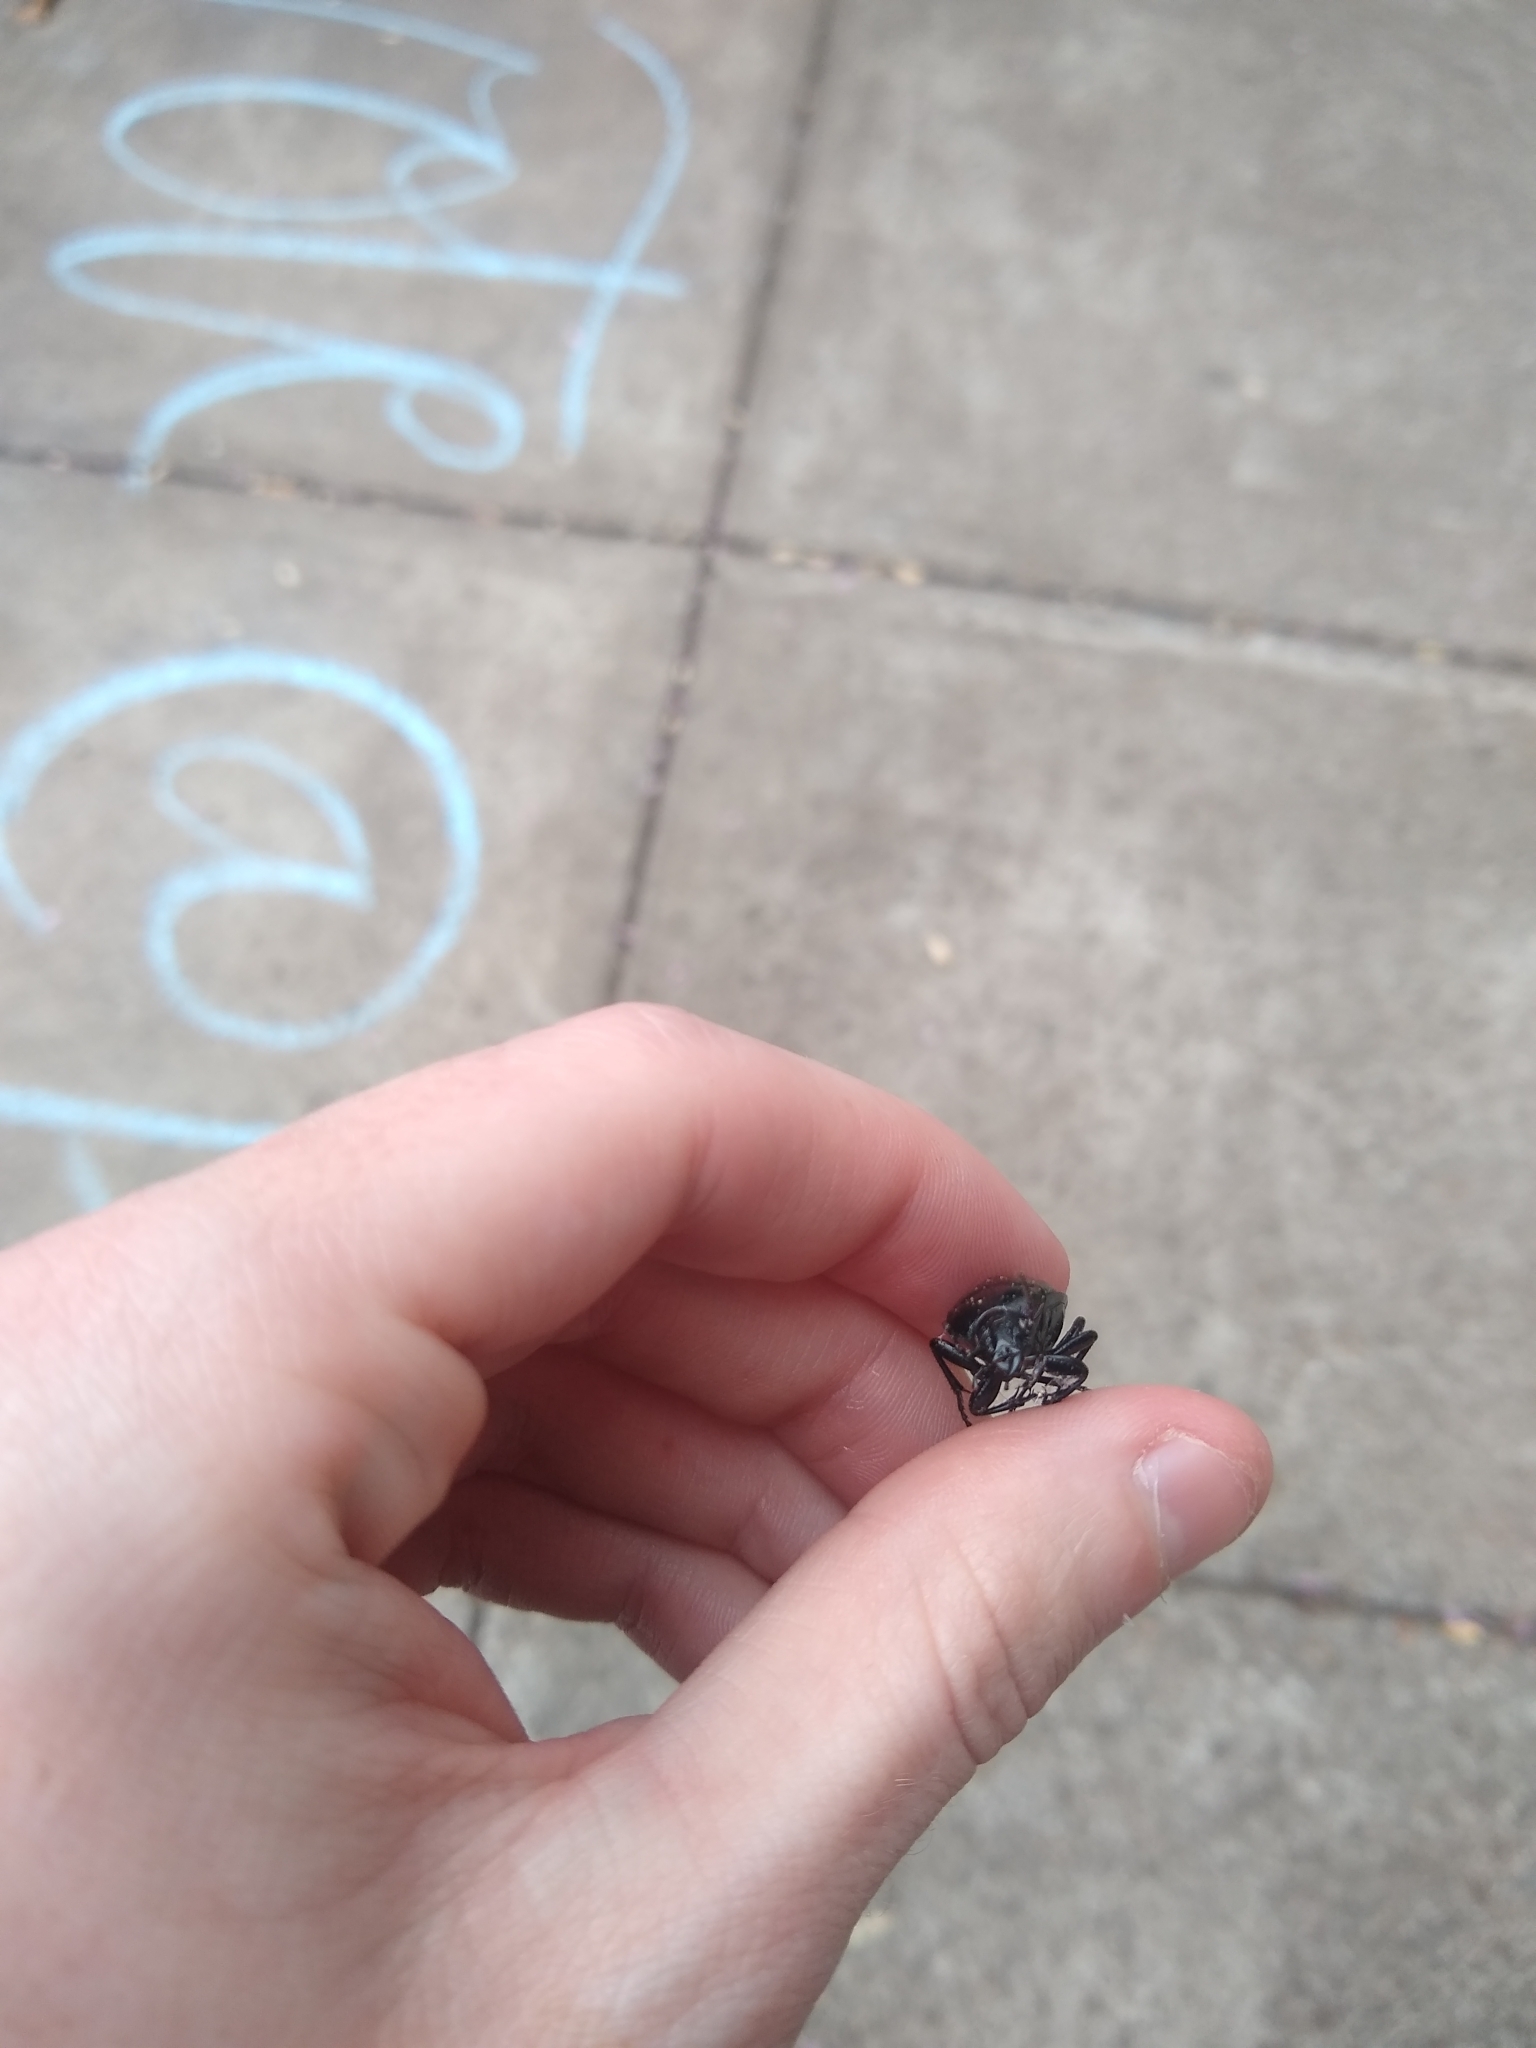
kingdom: Animalia
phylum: Arthropoda
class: Insecta
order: Coleoptera
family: Carabidae
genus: Carabus
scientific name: Carabus nemoralis
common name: European ground beetle
